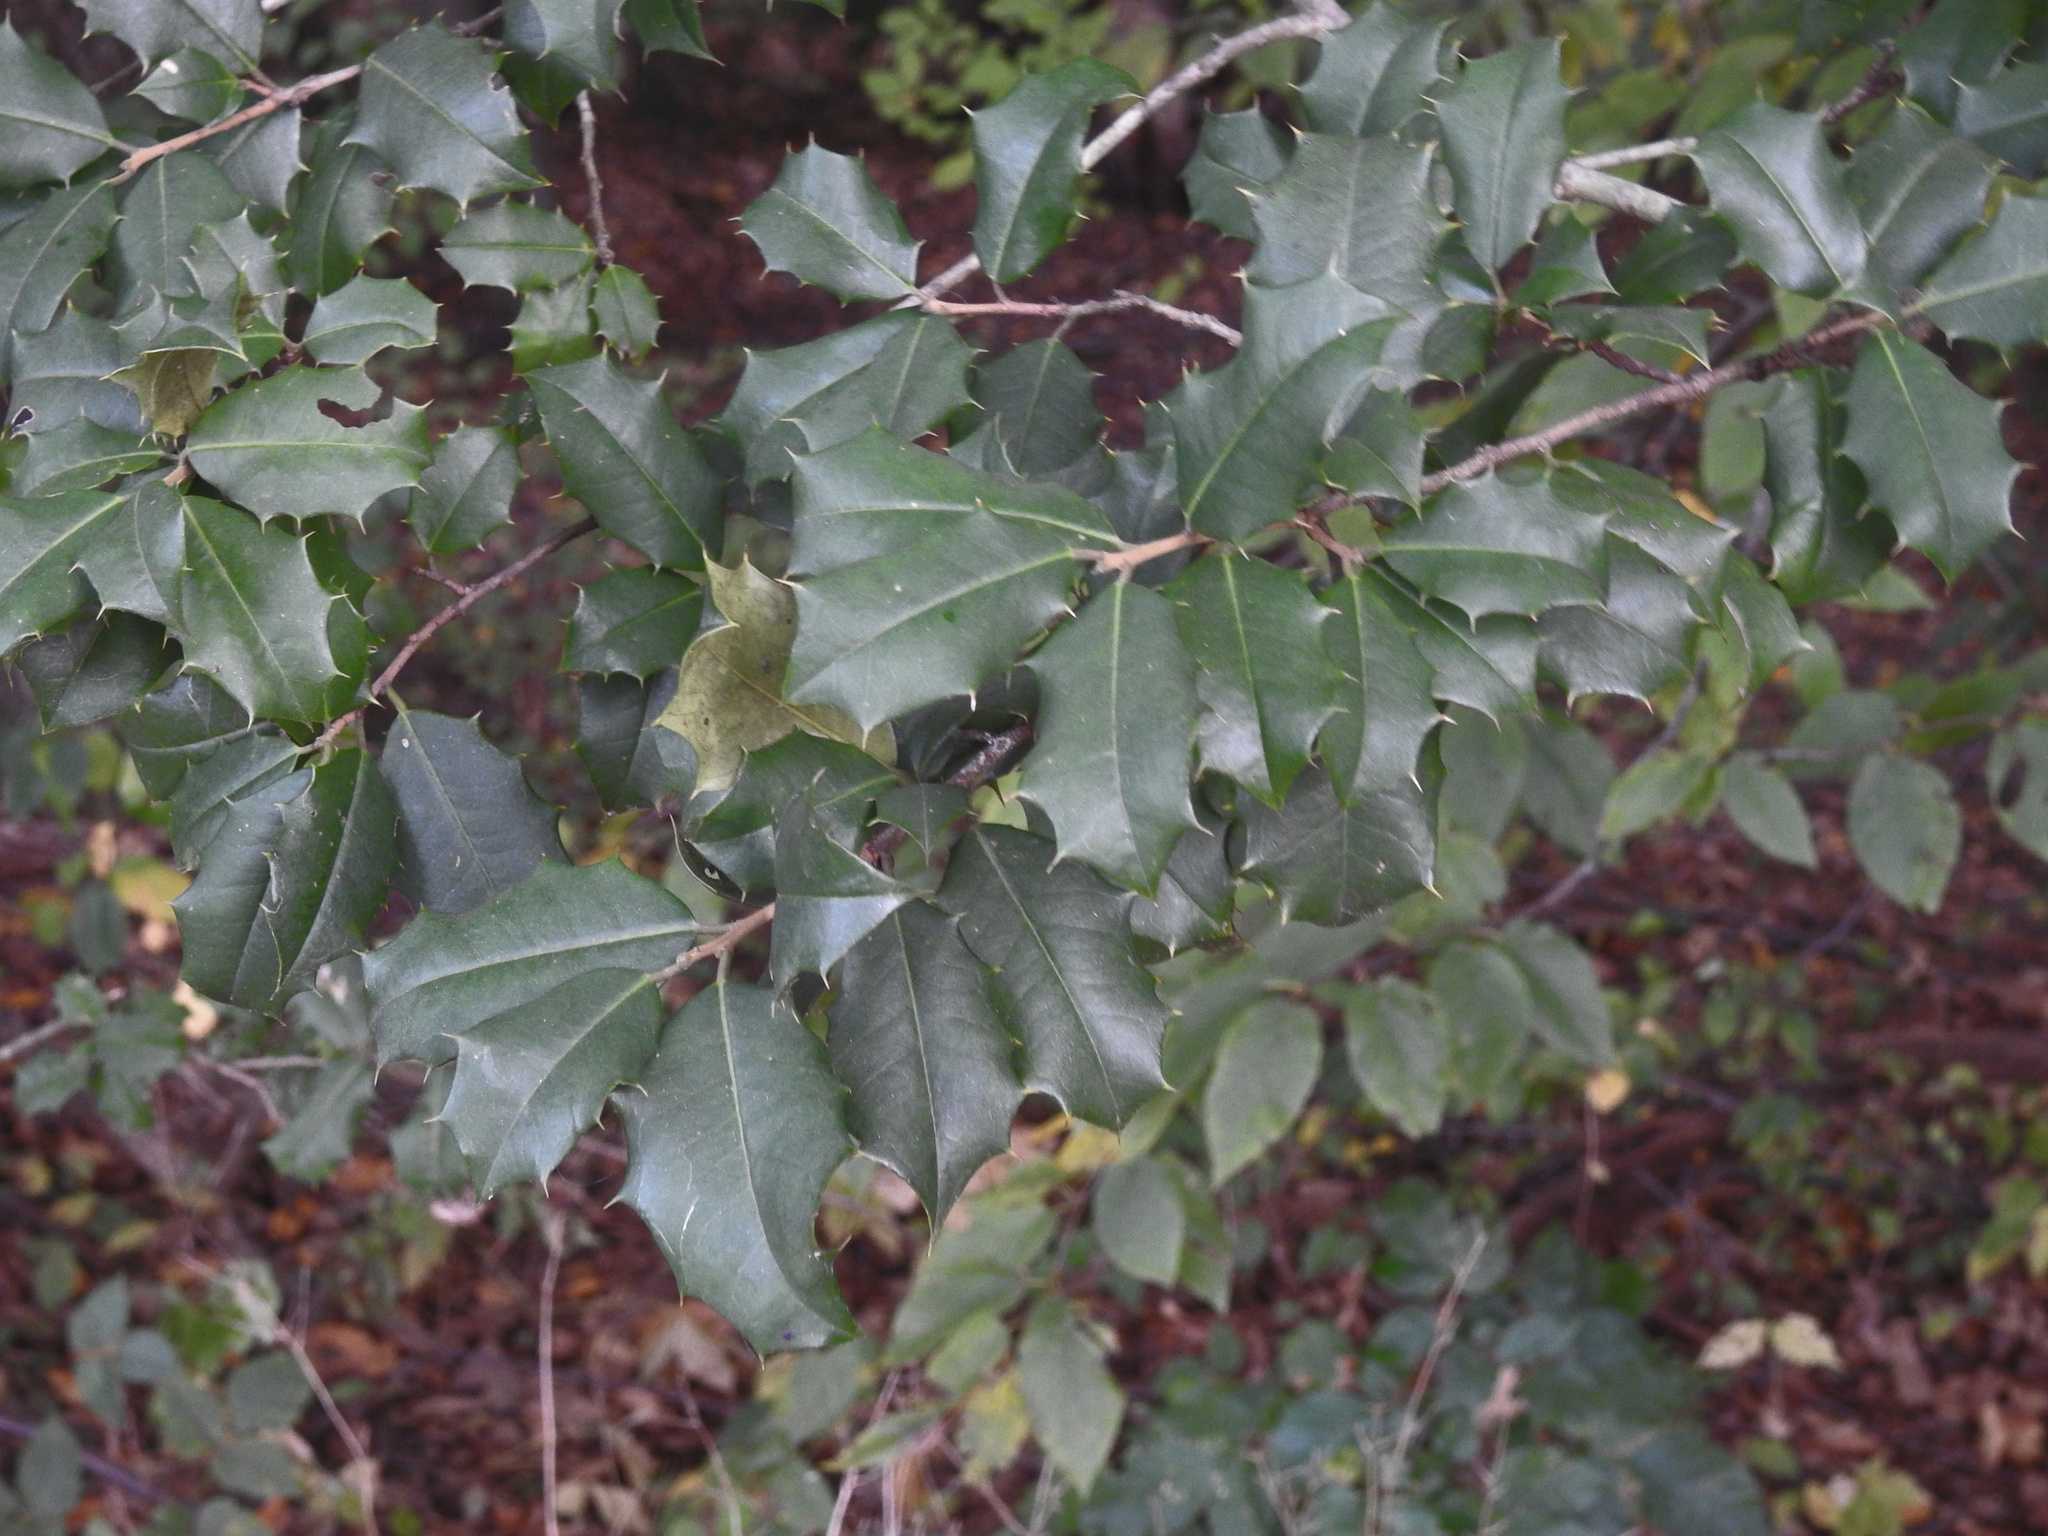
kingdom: Plantae
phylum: Tracheophyta
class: Magnoliopsida
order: Aquifoliales
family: Aquifoliaceae
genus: Ilex
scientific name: Ilex opaca
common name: American holly
